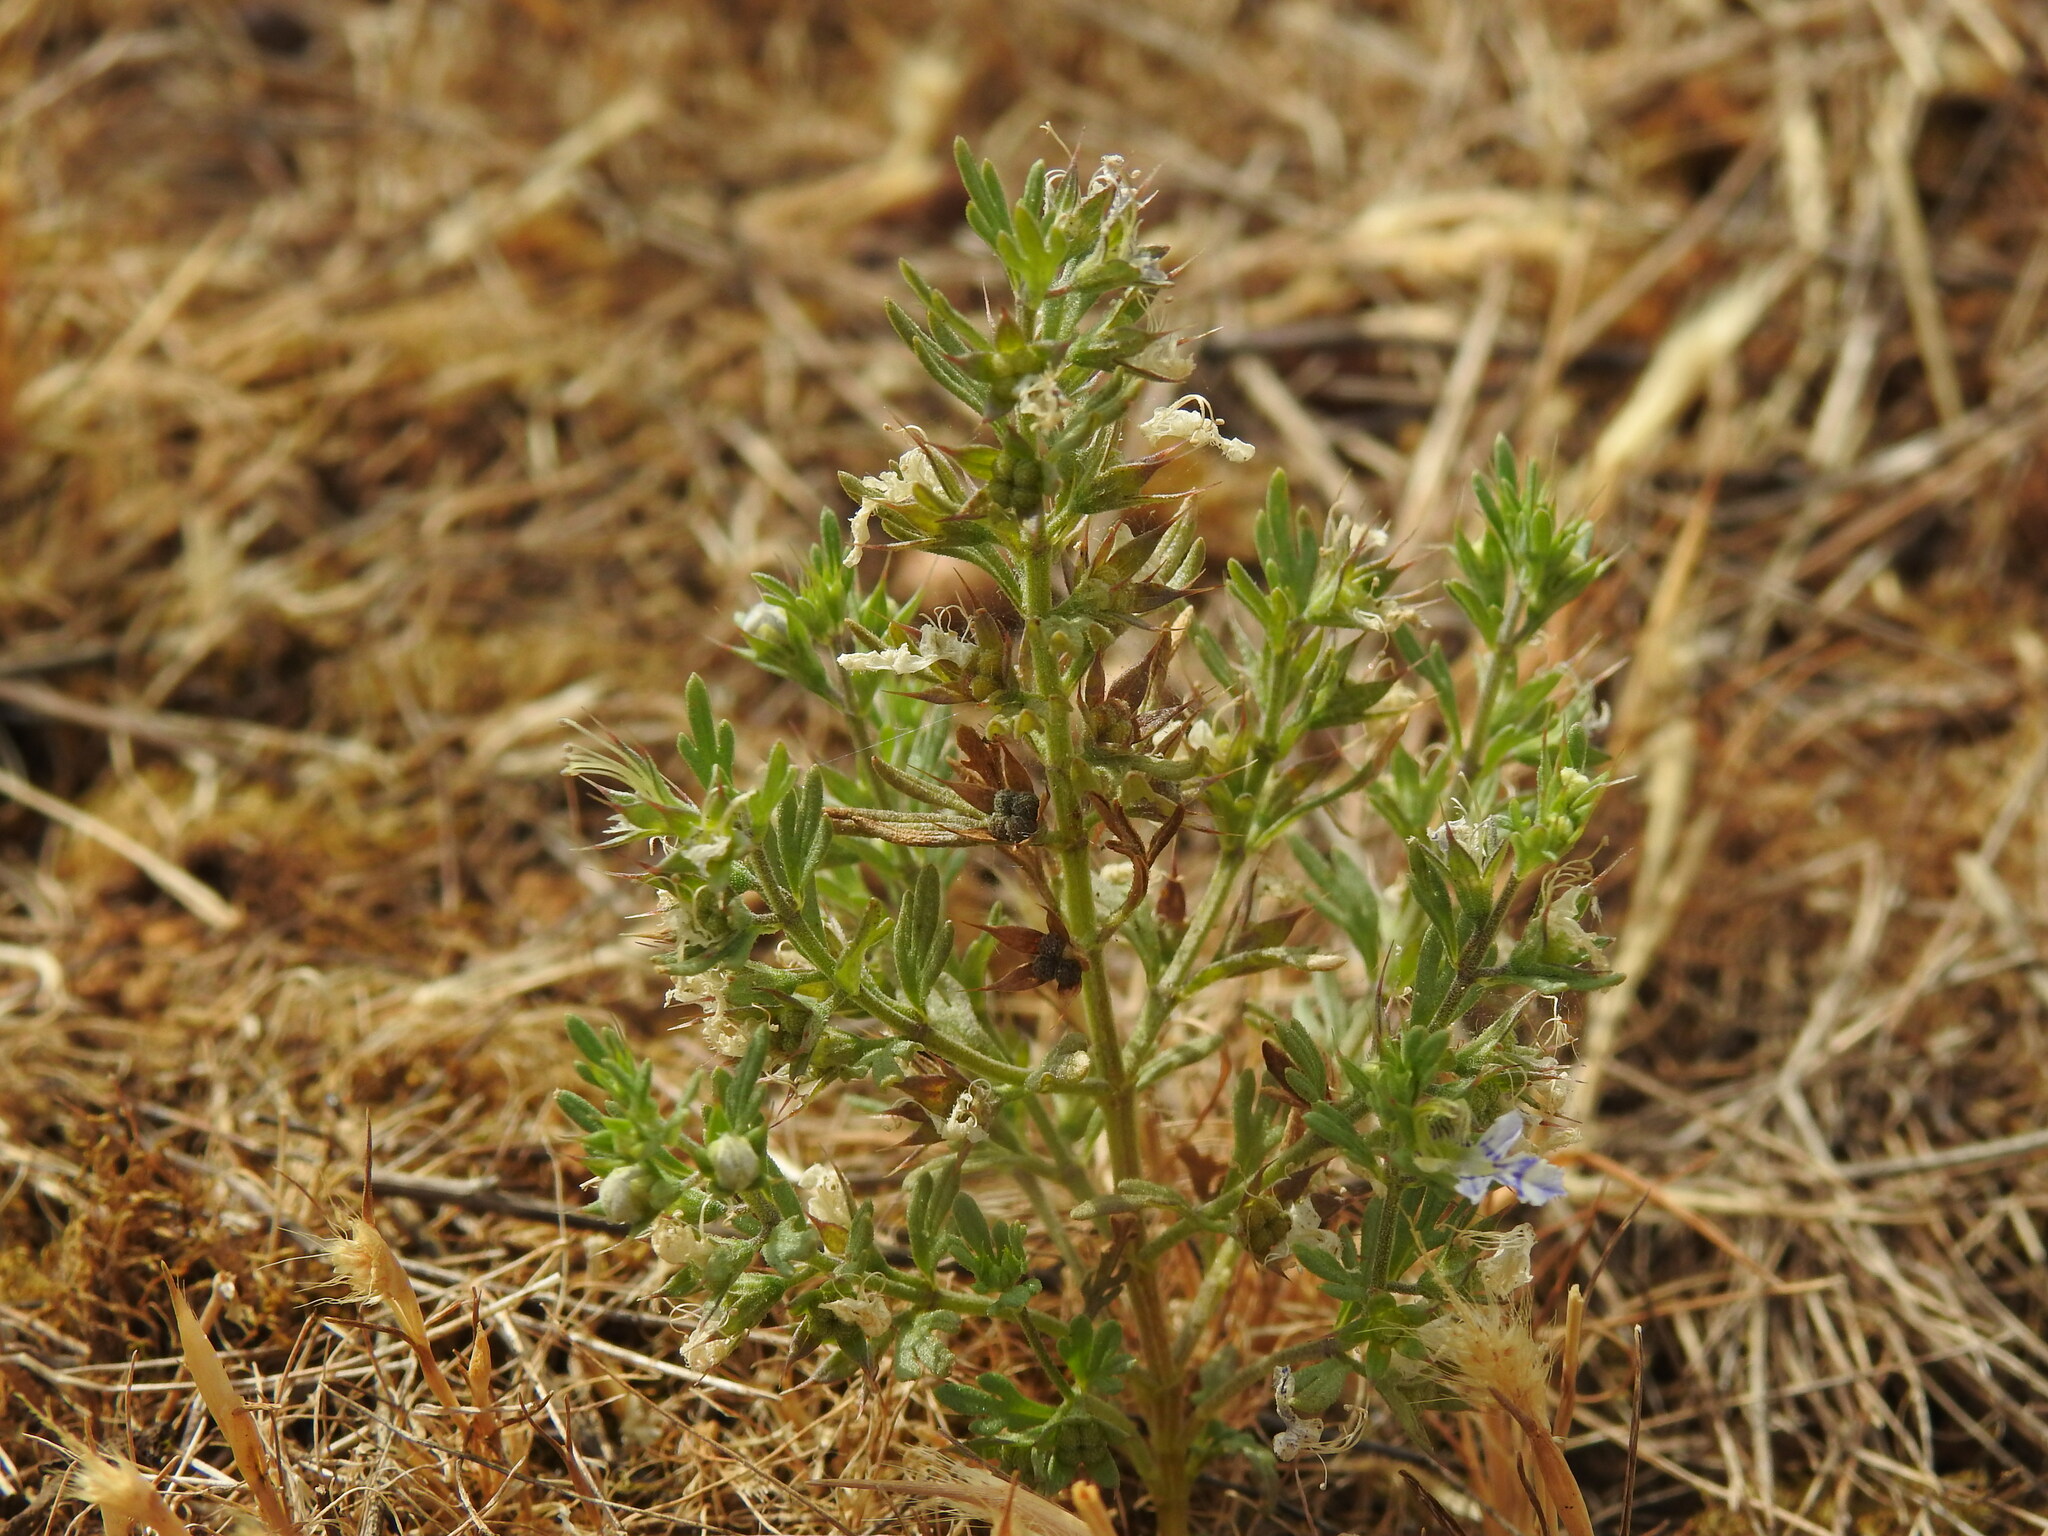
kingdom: Plantae
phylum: Tracheophyta
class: Magnoliopsida
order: Lamiales
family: Lamiaceae
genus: Teucrium
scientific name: Teucrium aristatum
